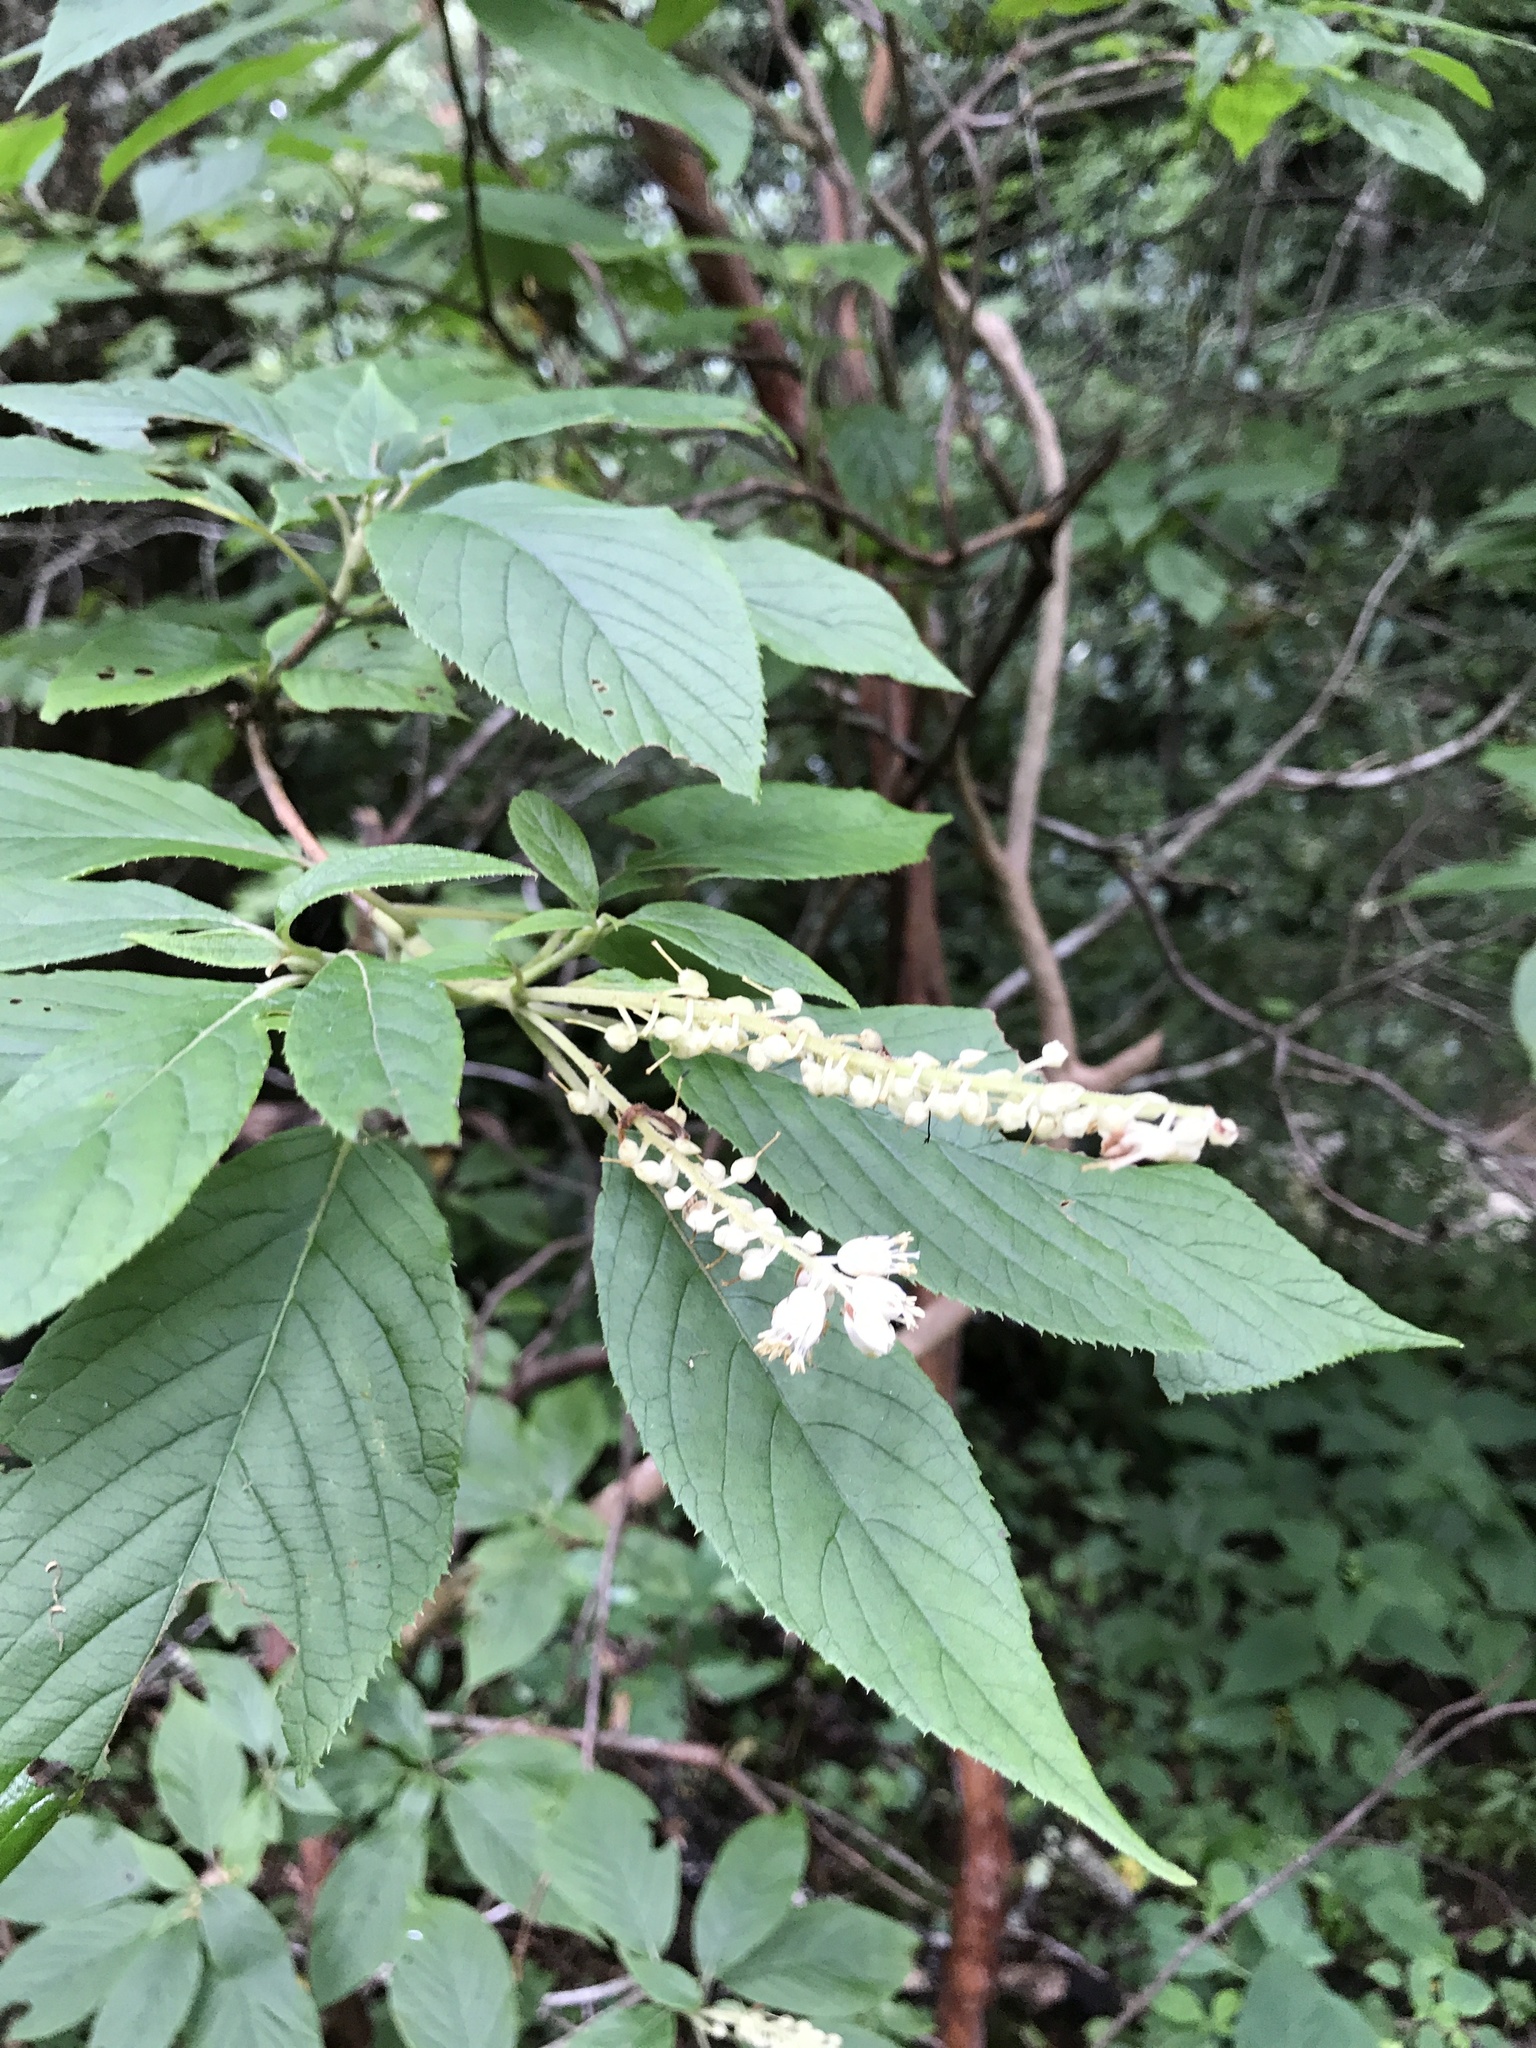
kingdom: Plantae
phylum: Tracheophyta
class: Magnoliopsida
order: Ericales
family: Clethraceae
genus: Clethra
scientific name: Clethra acuminata
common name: Mountain sweet pepperbush
